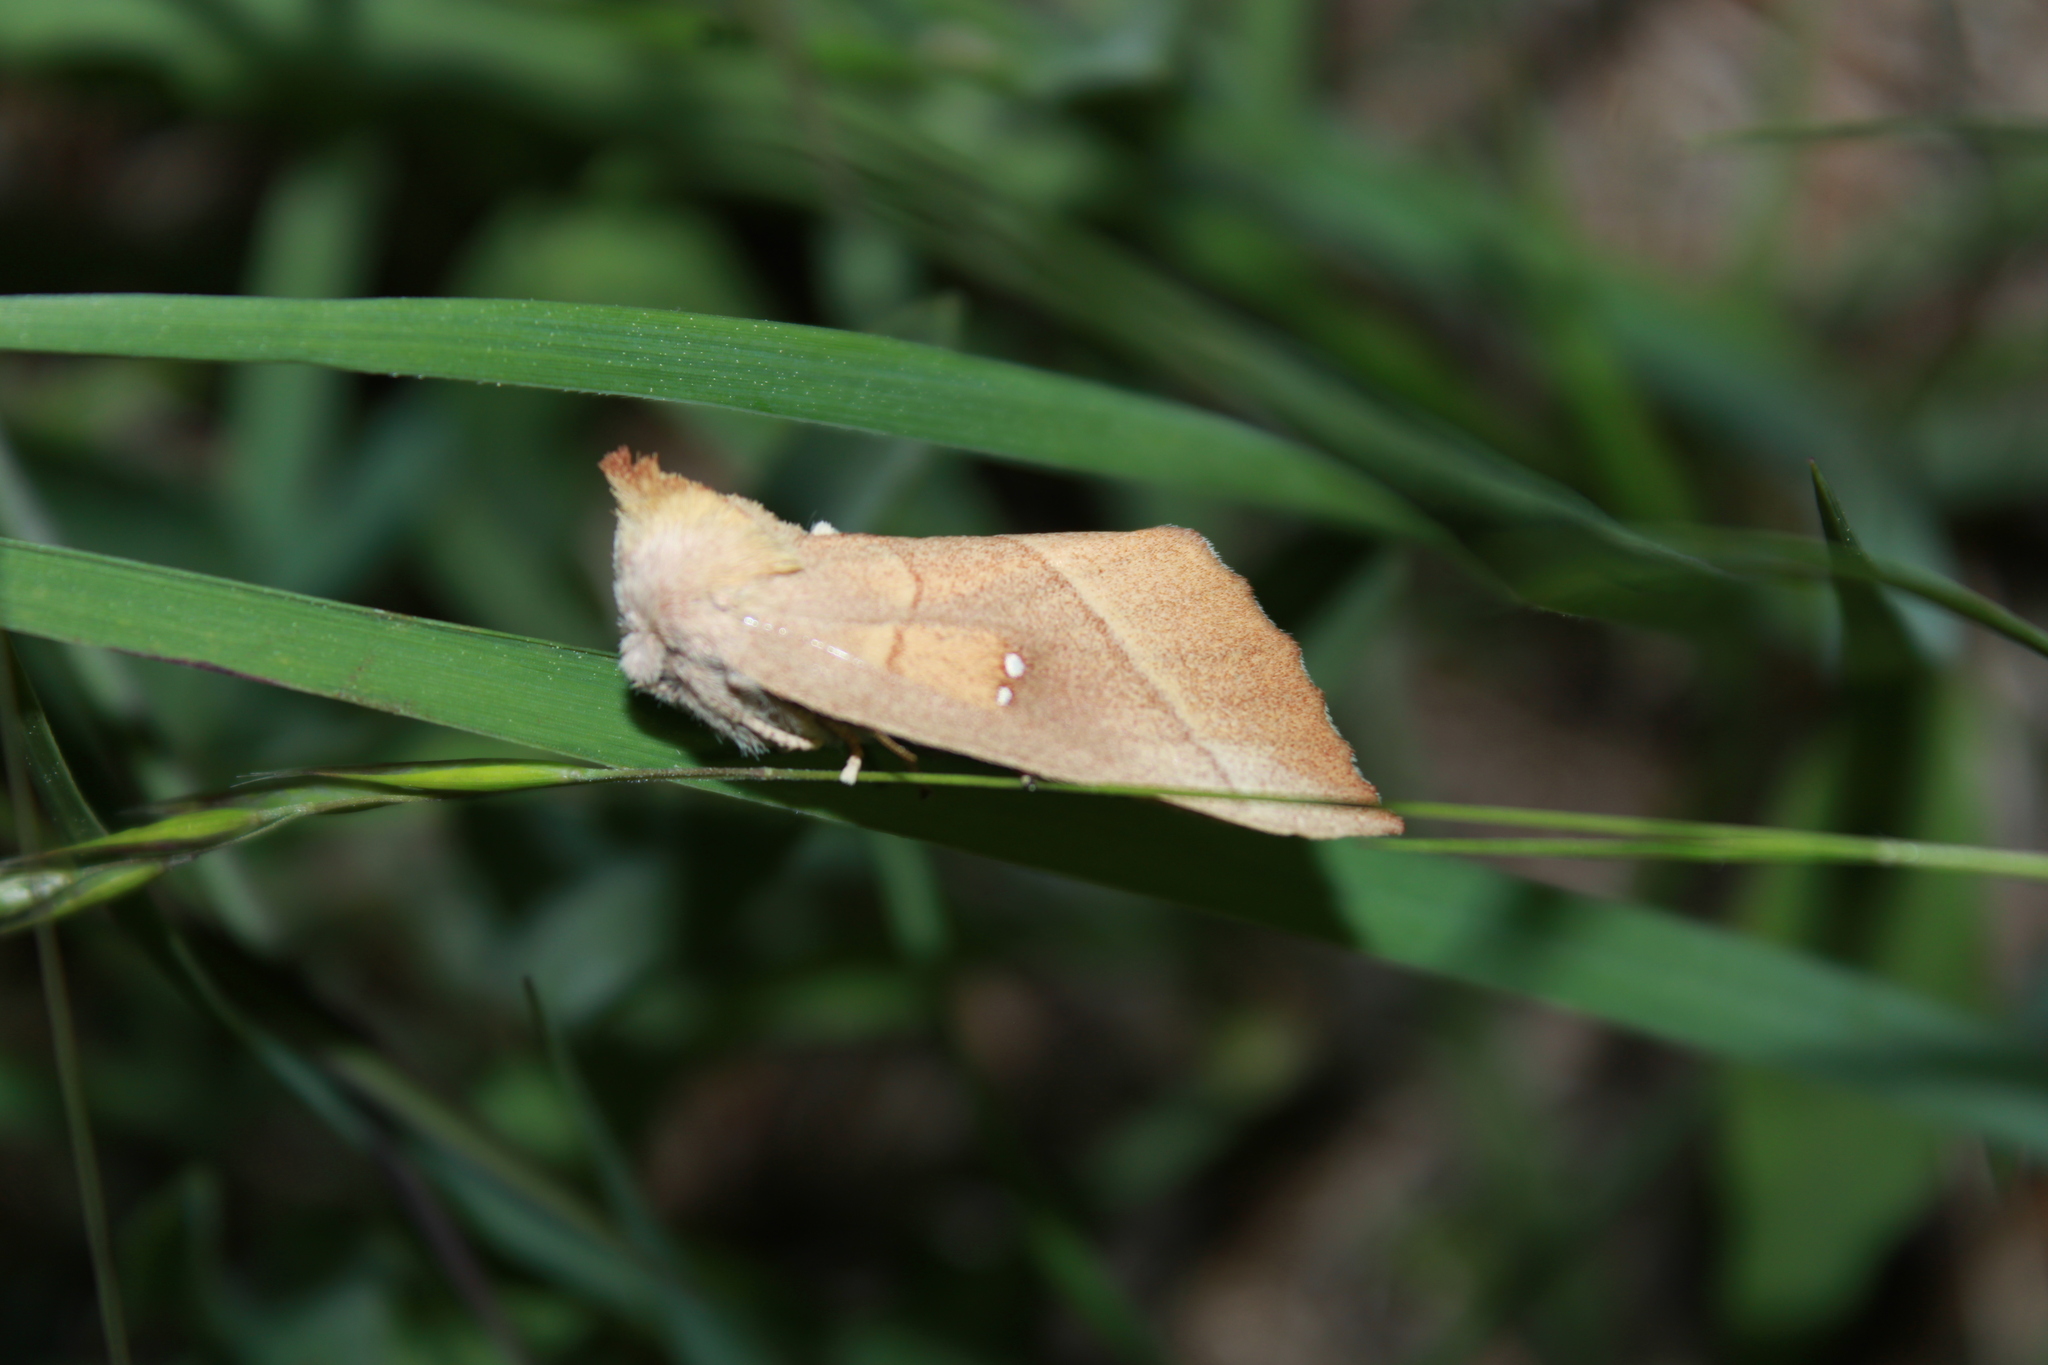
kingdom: Animalia
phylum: Arthropoda
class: Insecta
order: Lepidoptera
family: Notodontidae
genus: Nadata
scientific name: Nadata gibbosa
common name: White-dotted prominent
